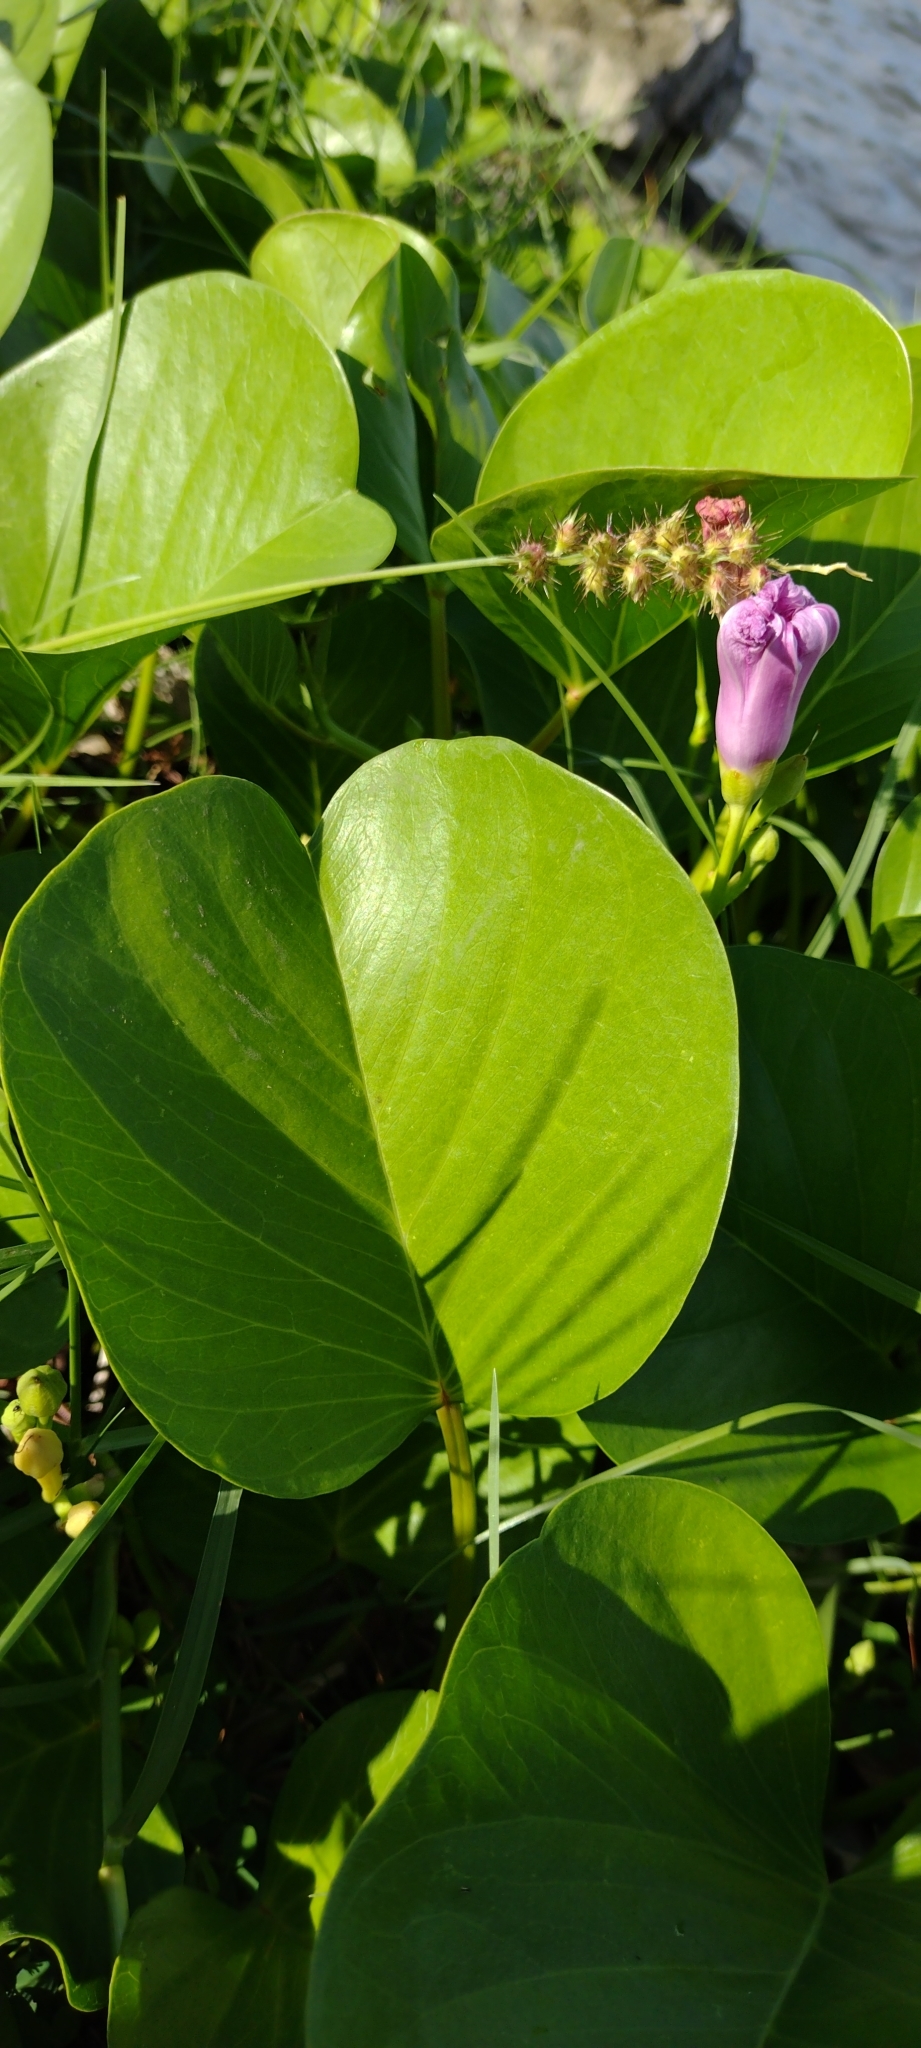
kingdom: Plantae
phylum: Tracheophyta
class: Magnoliopsida
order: Solanales
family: Convolvulaceae
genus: Ipomoea
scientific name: Ipomoea pes-caprae
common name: Beach morning glory
